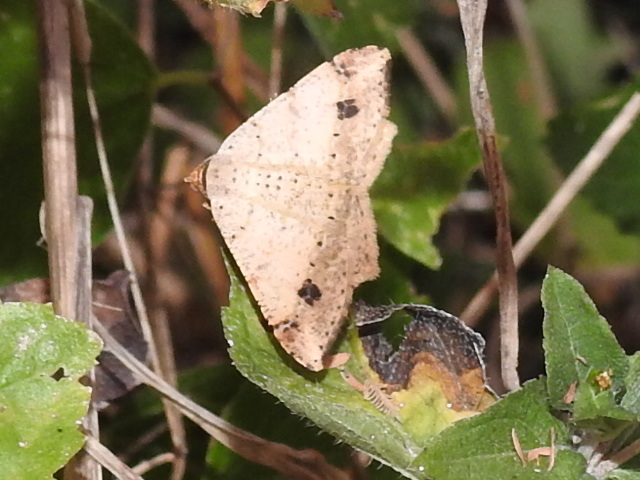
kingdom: Animalia
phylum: Arthropoda
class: Insecta
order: Lepidoptera
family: Geometridae
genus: Macaria
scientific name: Macaria abydata
